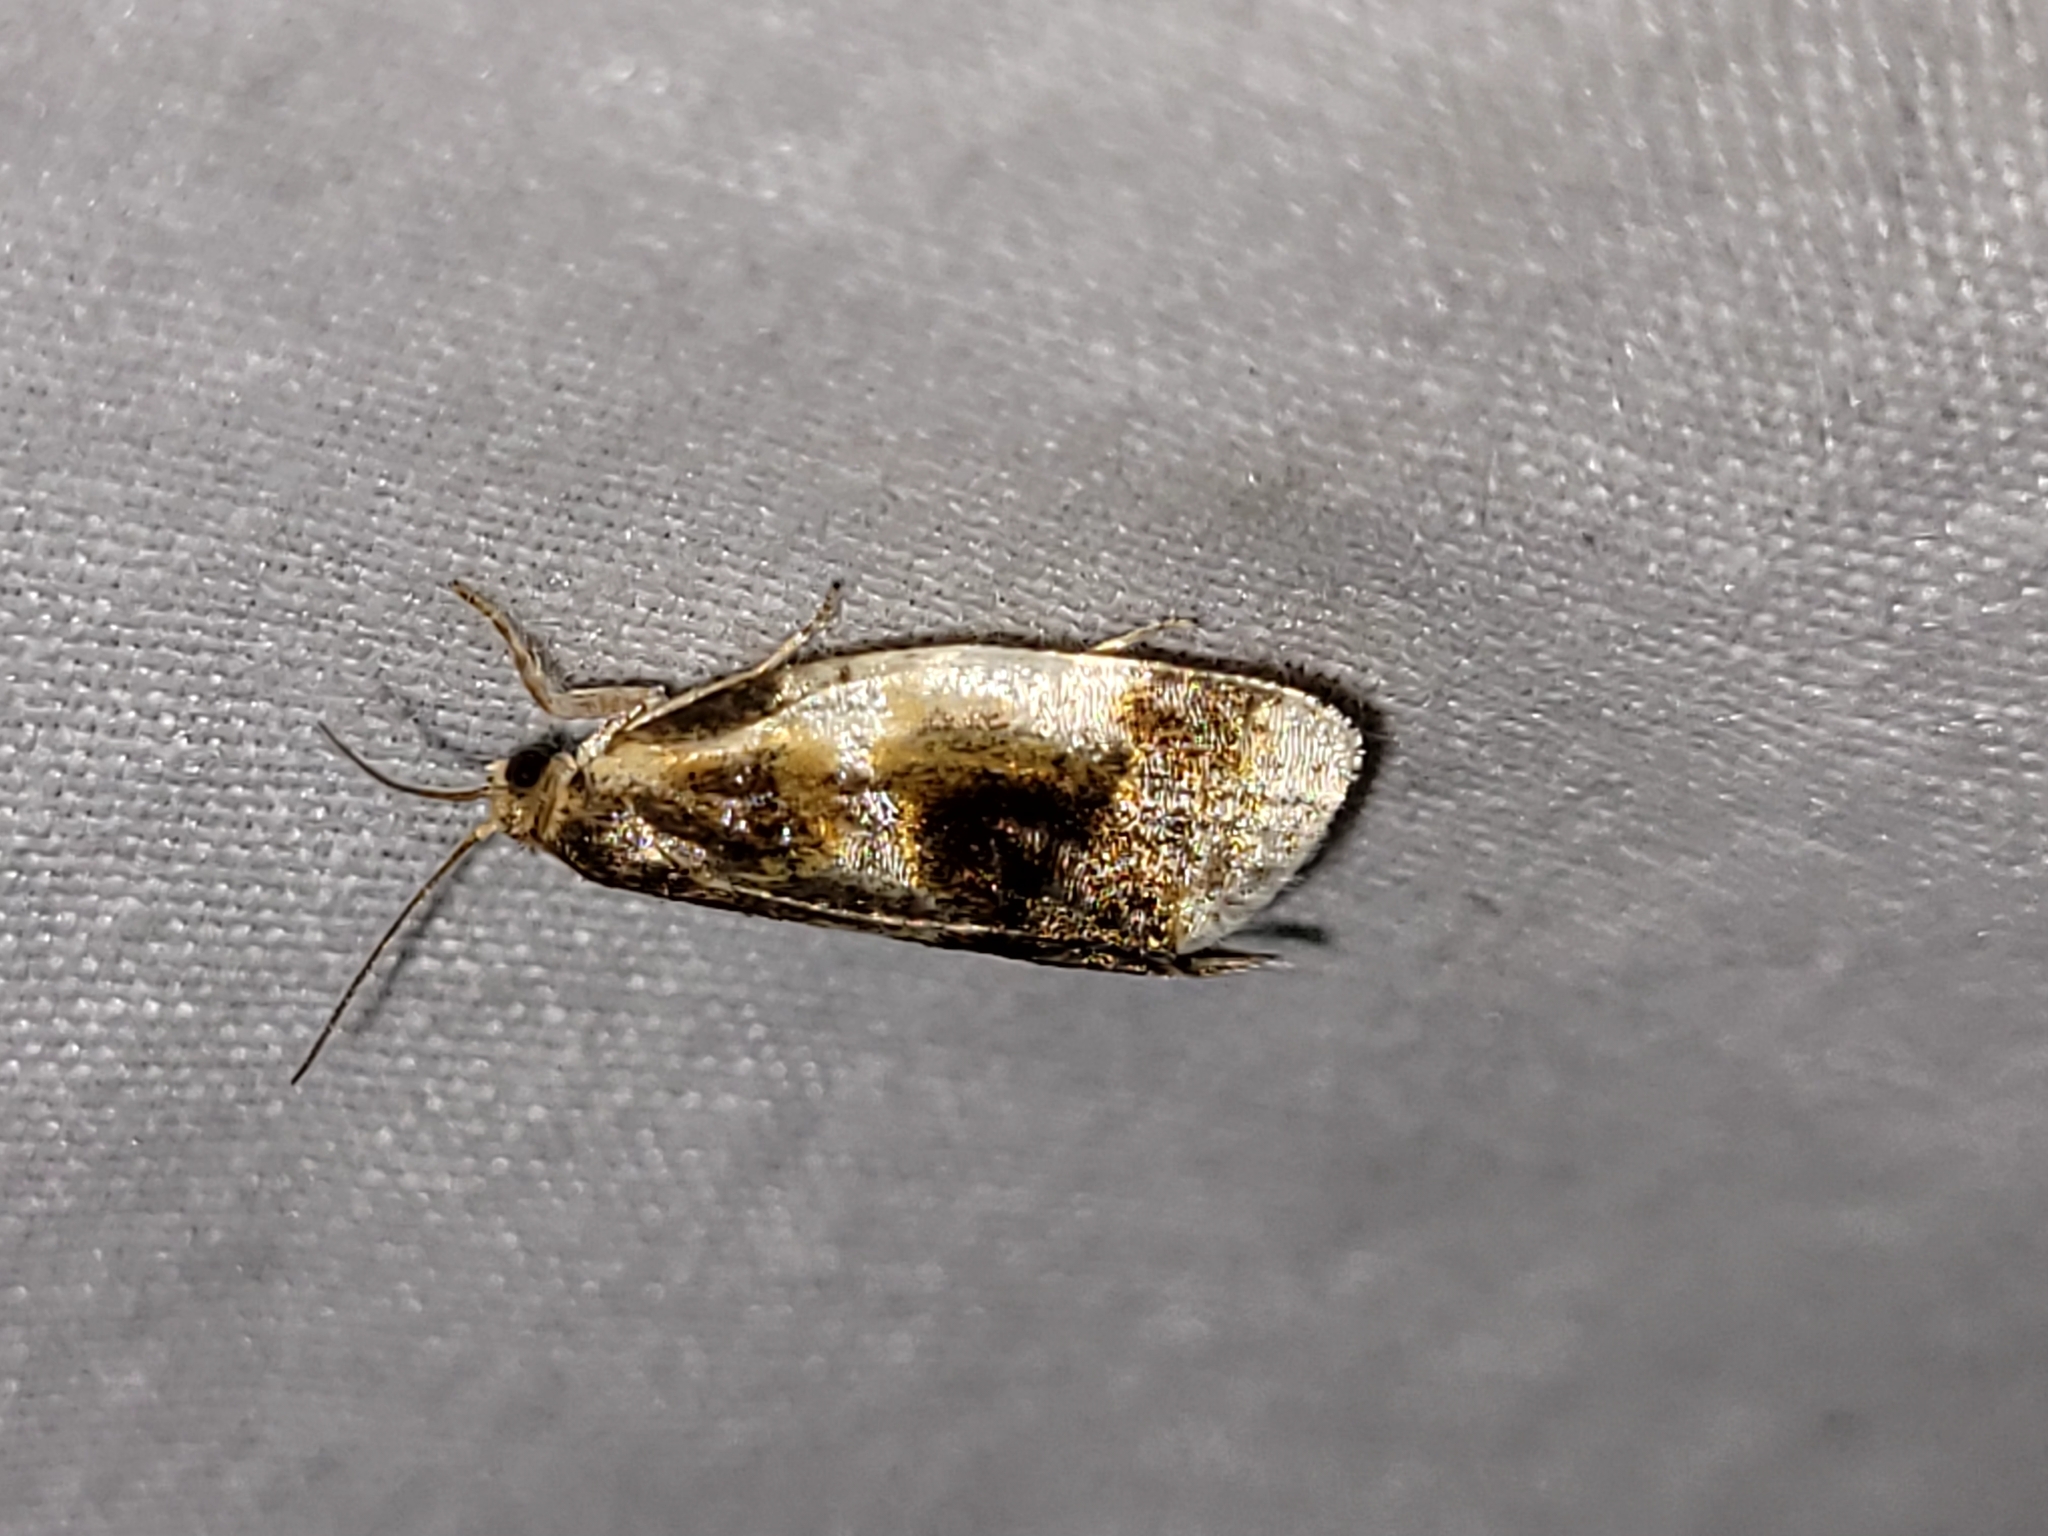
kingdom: Animalia
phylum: Arthropoda
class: Insecta
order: Lepidoptera
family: Tortricidae
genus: Clepsis
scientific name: Clepsis melaleucanus
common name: American apple tortrix
